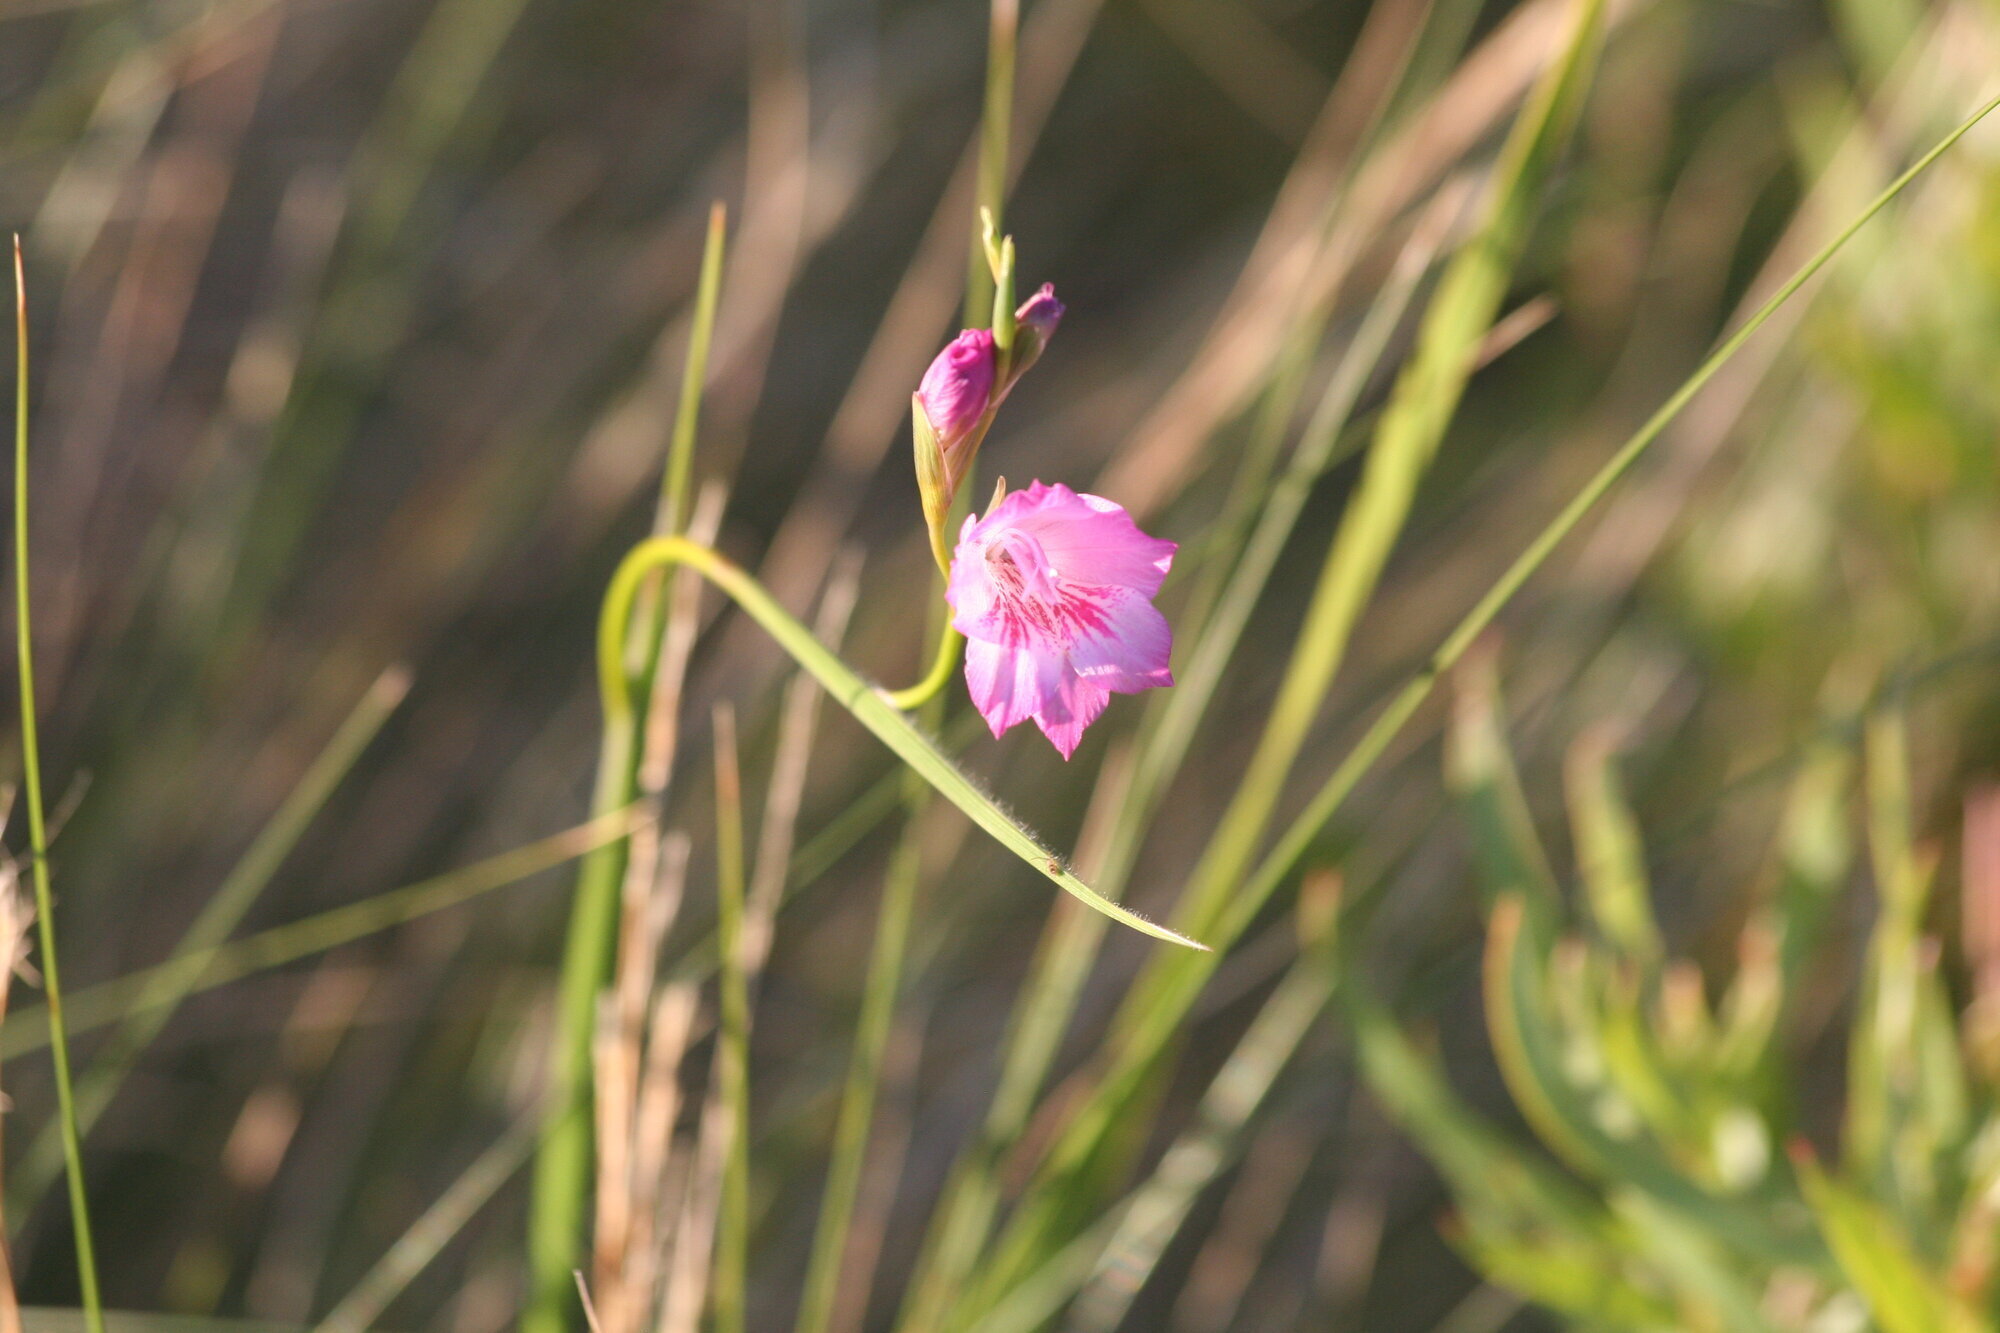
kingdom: Plantae
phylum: Tracheophyta
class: Liliopsida
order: Asparagales
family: Iridaceae
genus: Gladiolus
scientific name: Gladiolus hirsutus
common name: Small pink afrikaner
